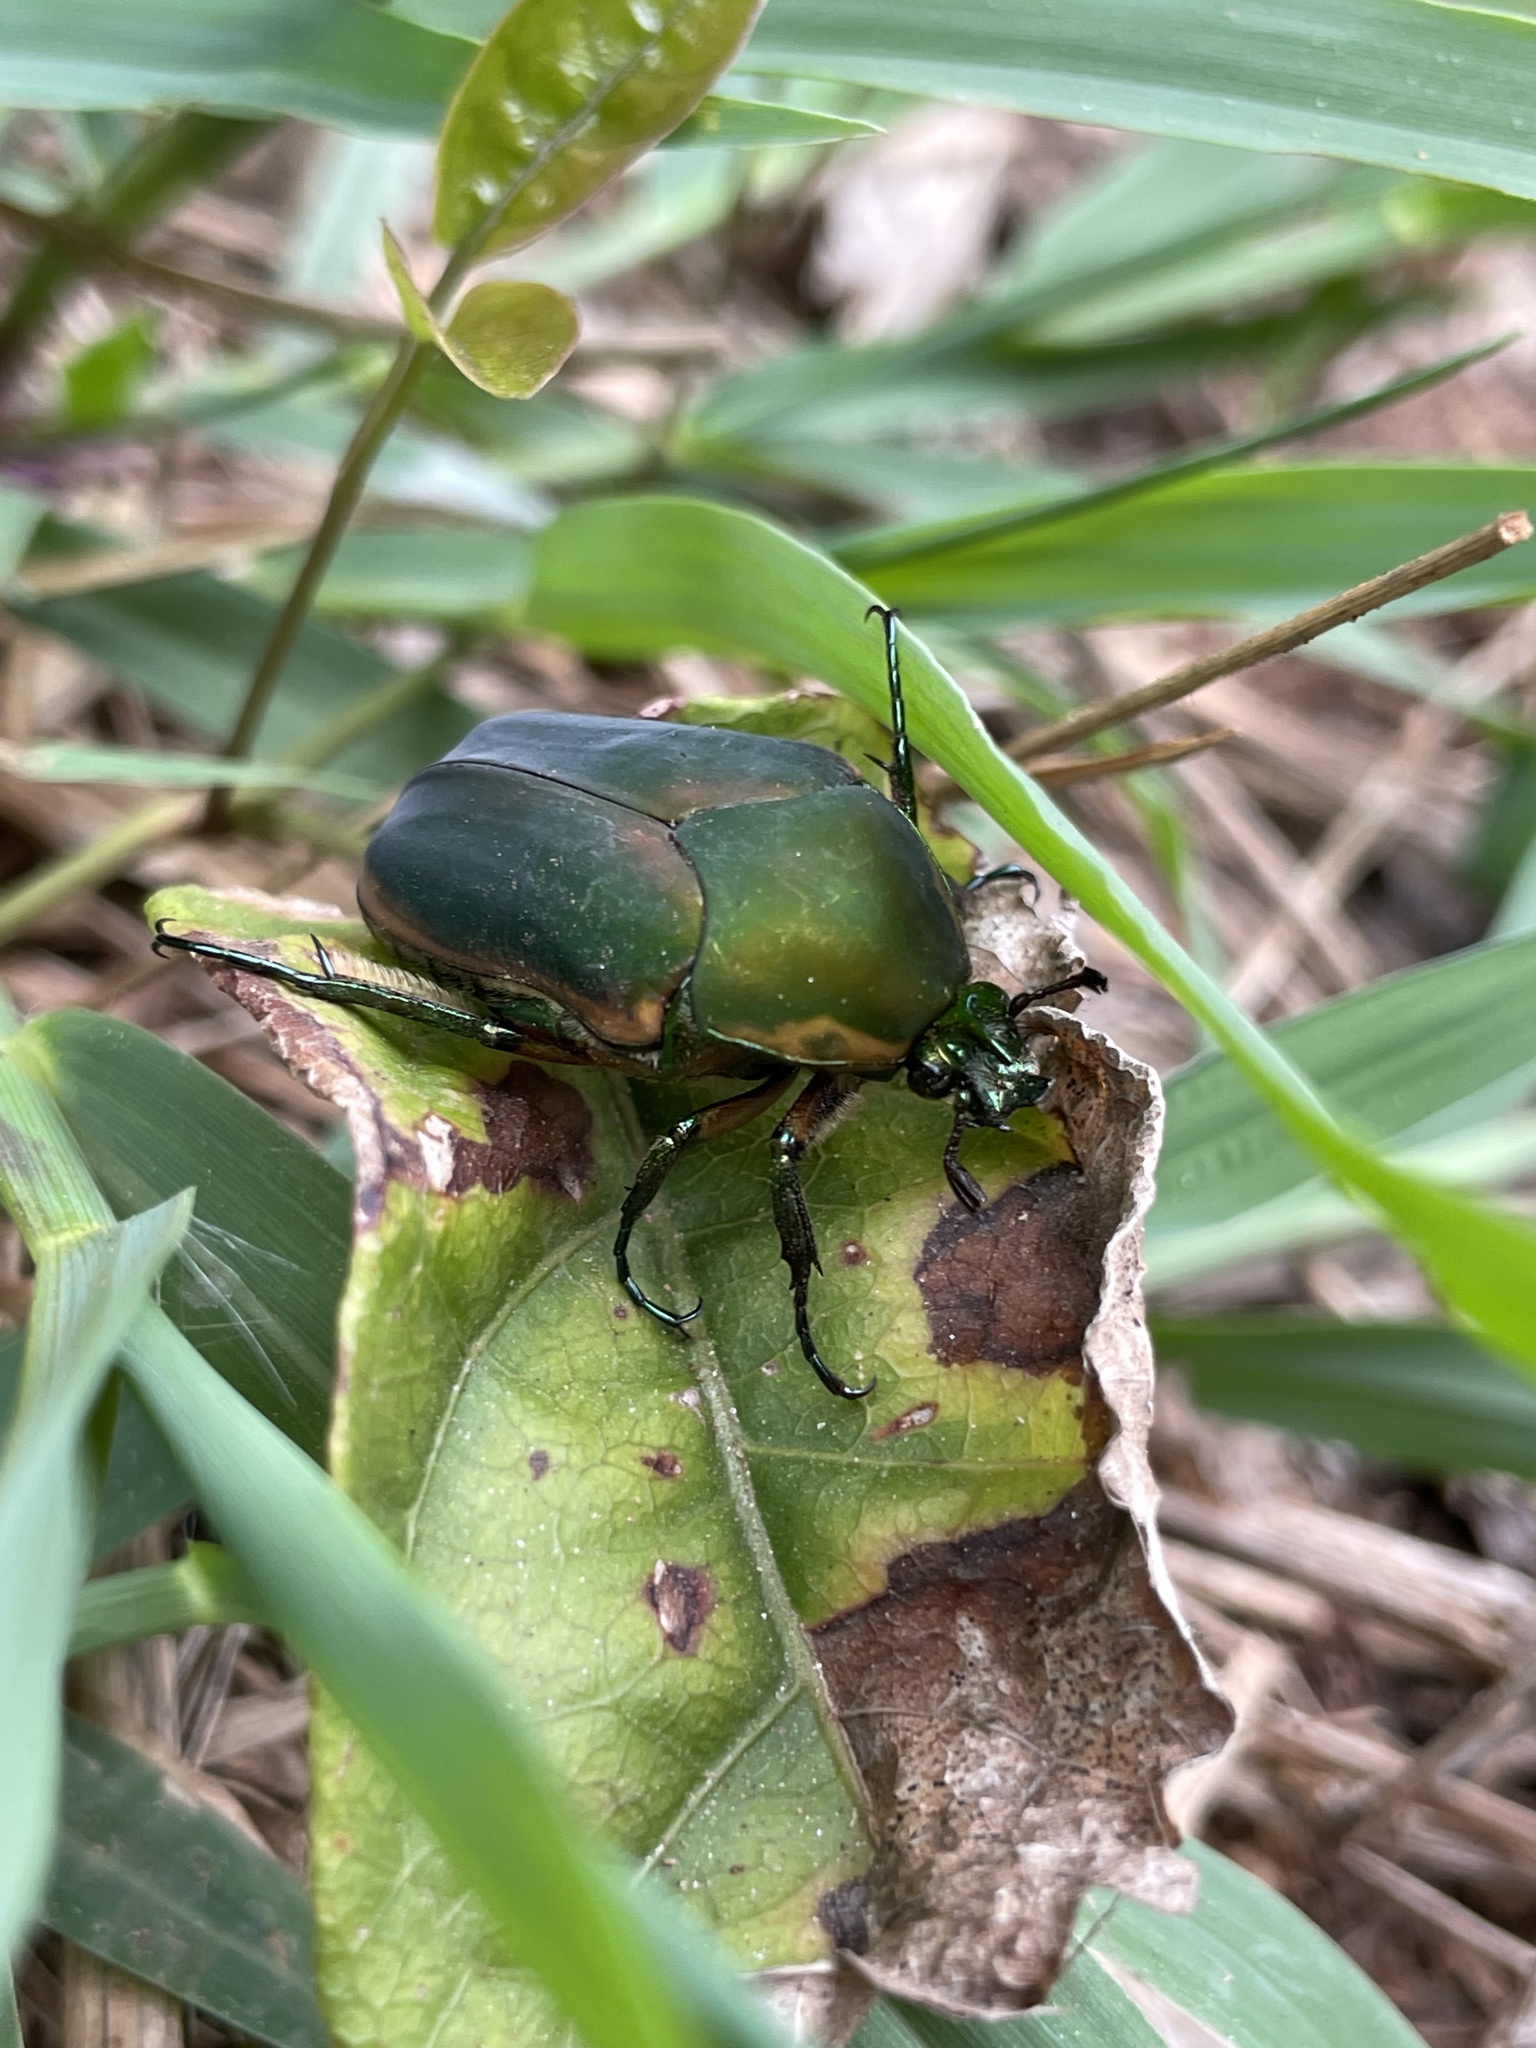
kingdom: Animalia
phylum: Arthropoda
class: Insecta
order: Coleoptera
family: Scarabaeidae
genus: Cotinis
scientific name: Cotinis nitida
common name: Common green june beetle
